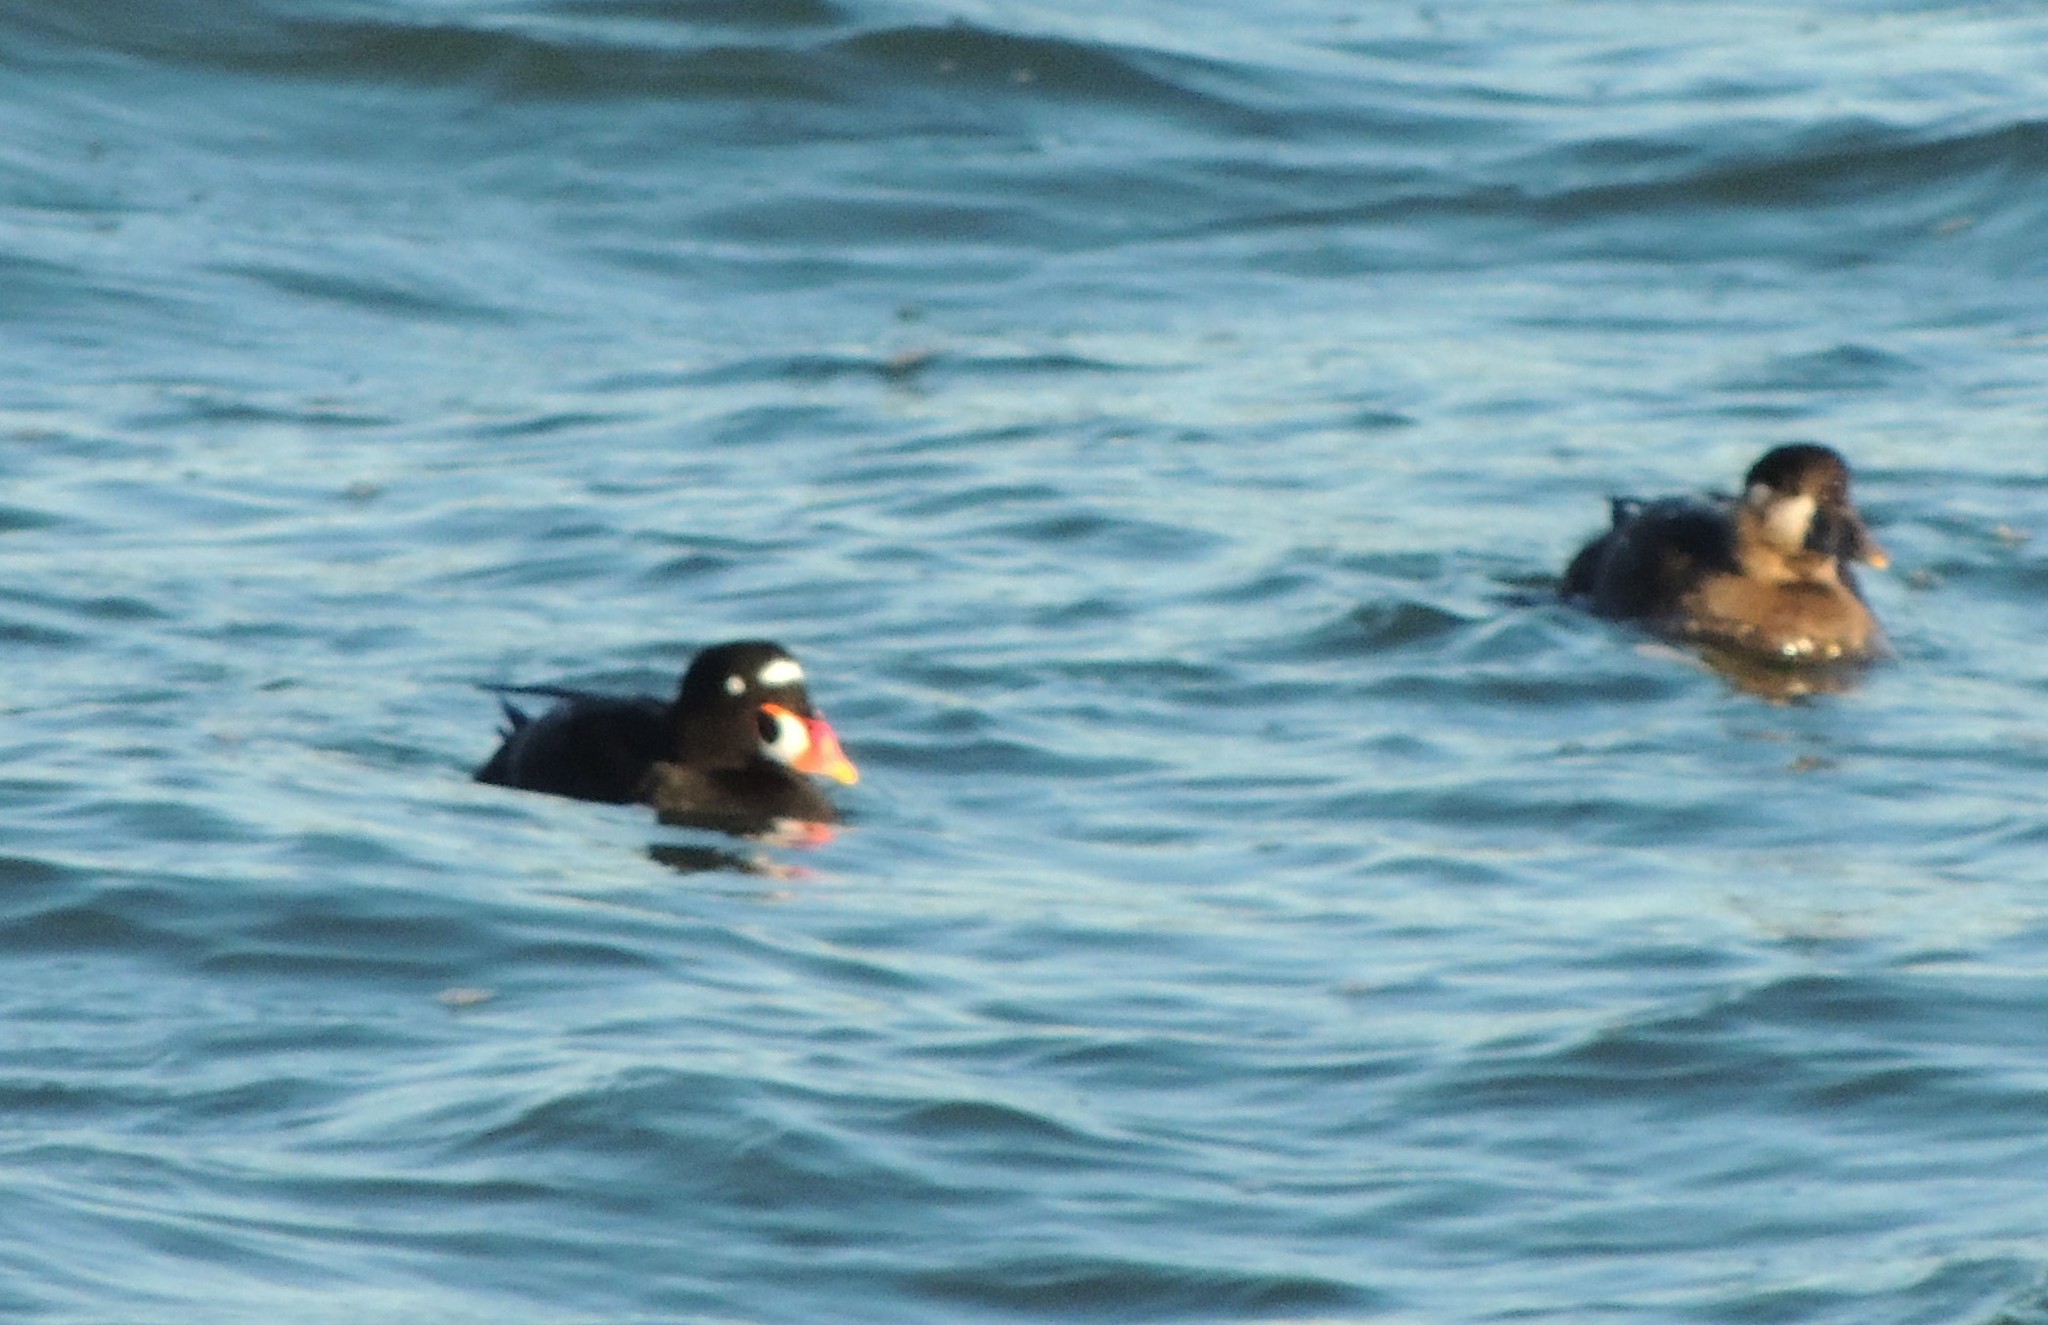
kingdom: Animalia
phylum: Chordata
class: Aves
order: Anseriformes
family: Anatidae
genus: Melanitta
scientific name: Melanitta perspicillata
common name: Surf scoter
